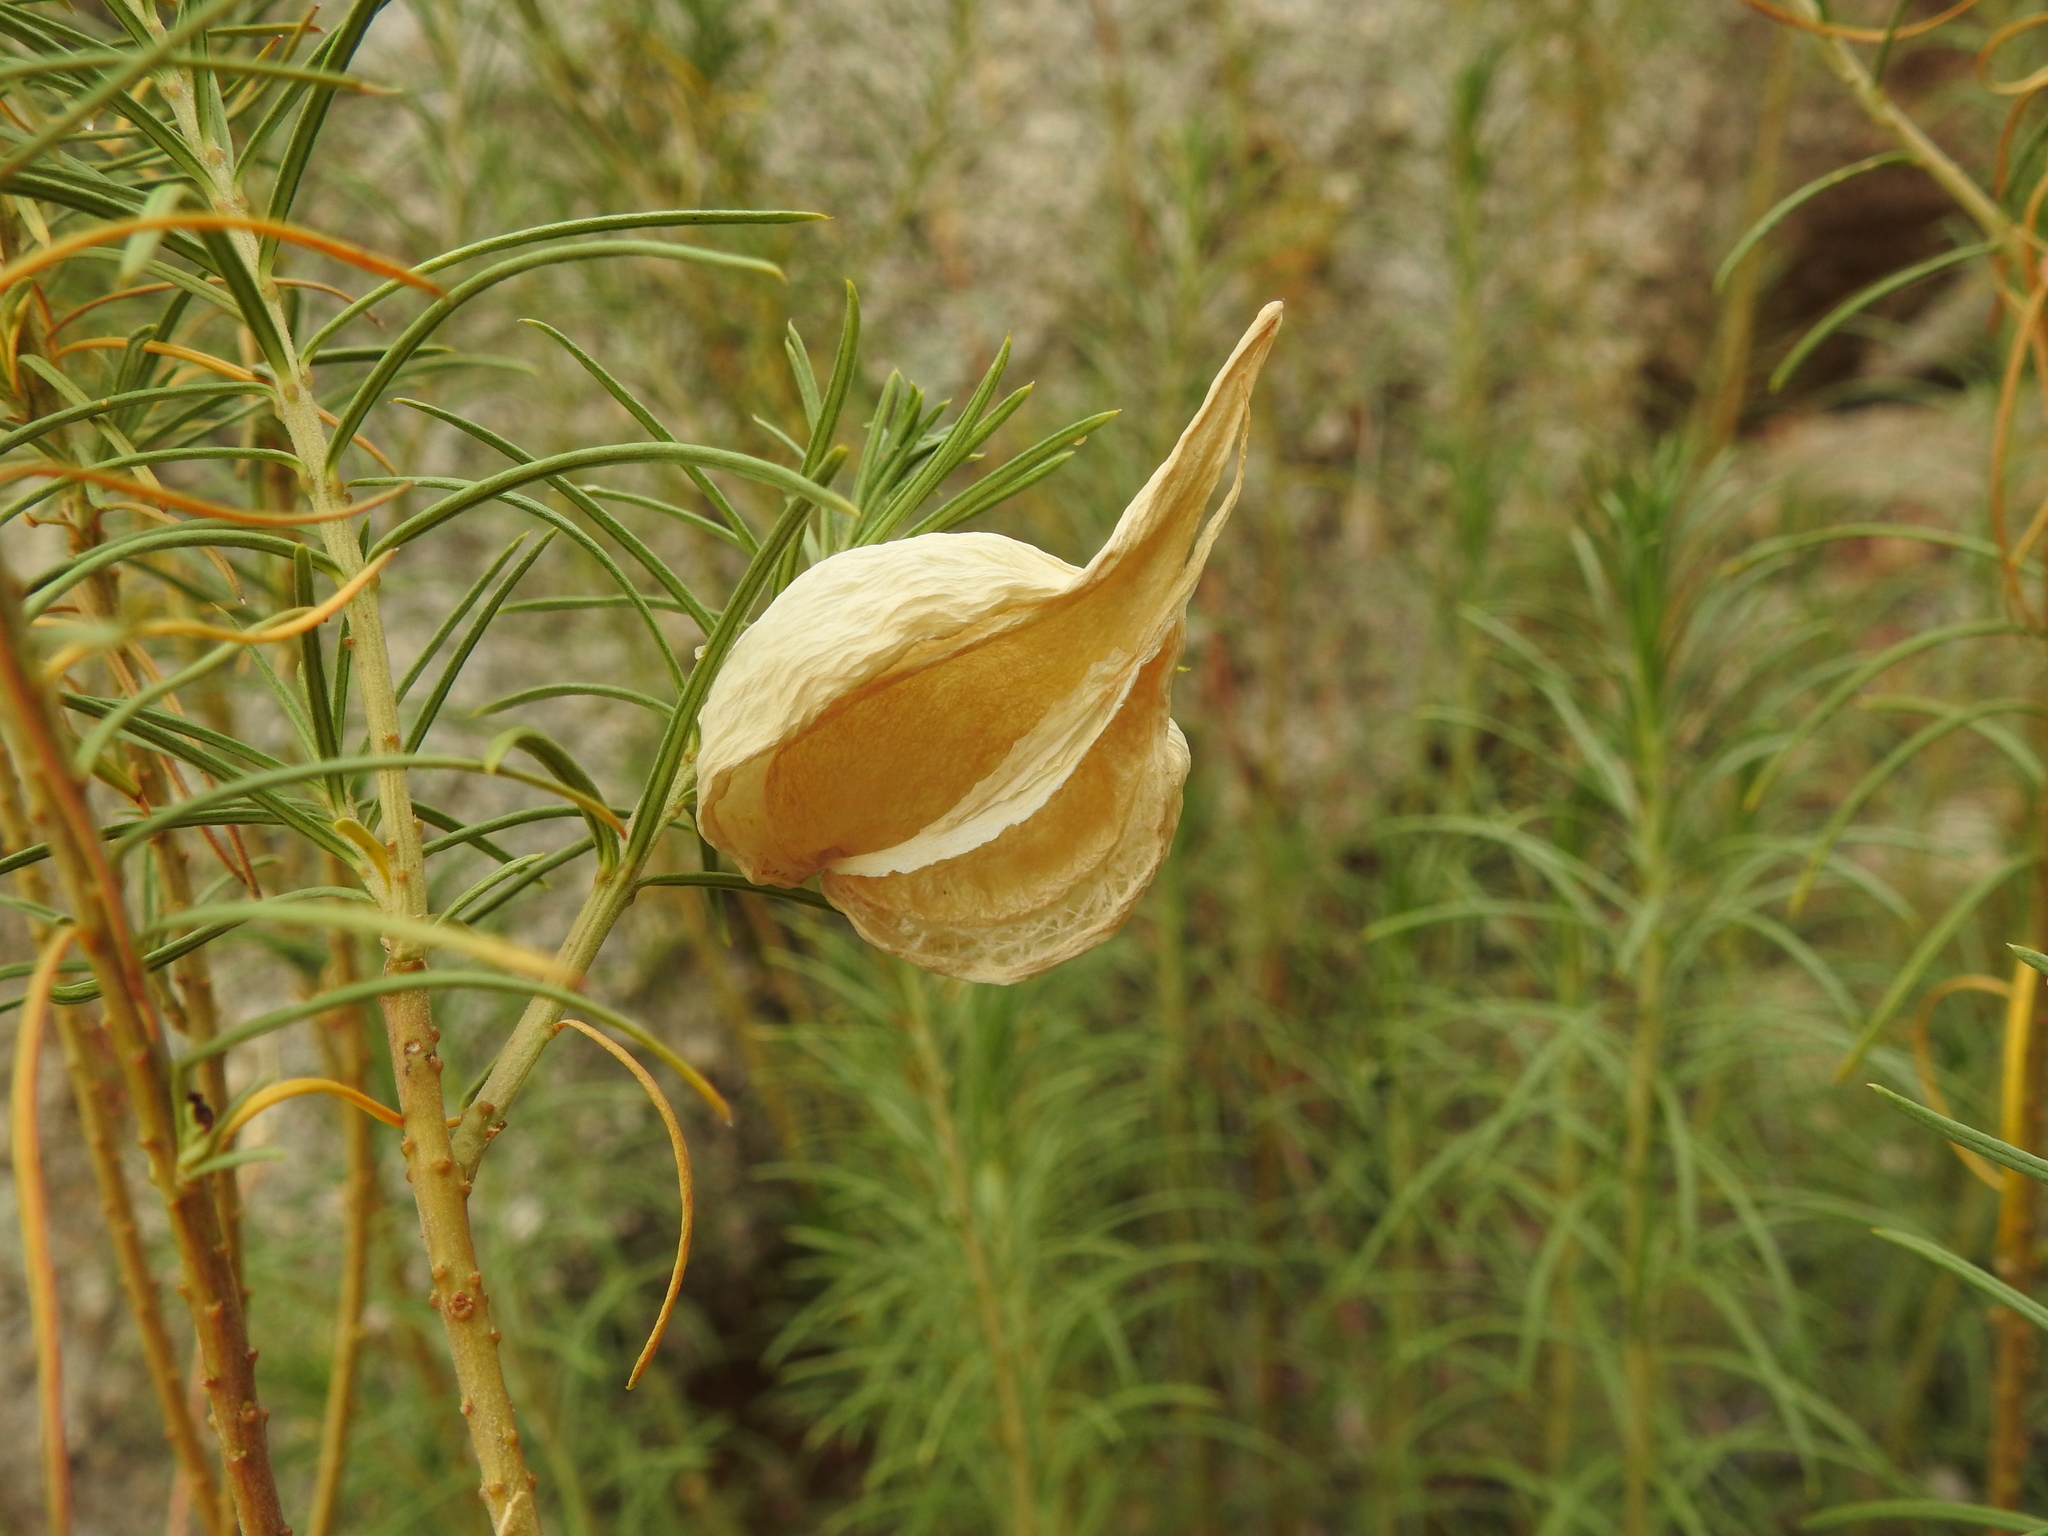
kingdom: Plantae
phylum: Tracheophyta
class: Magnoliopsida
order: Gentianales
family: Apocynaceae
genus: Asclepias
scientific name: Asclepias linaria
